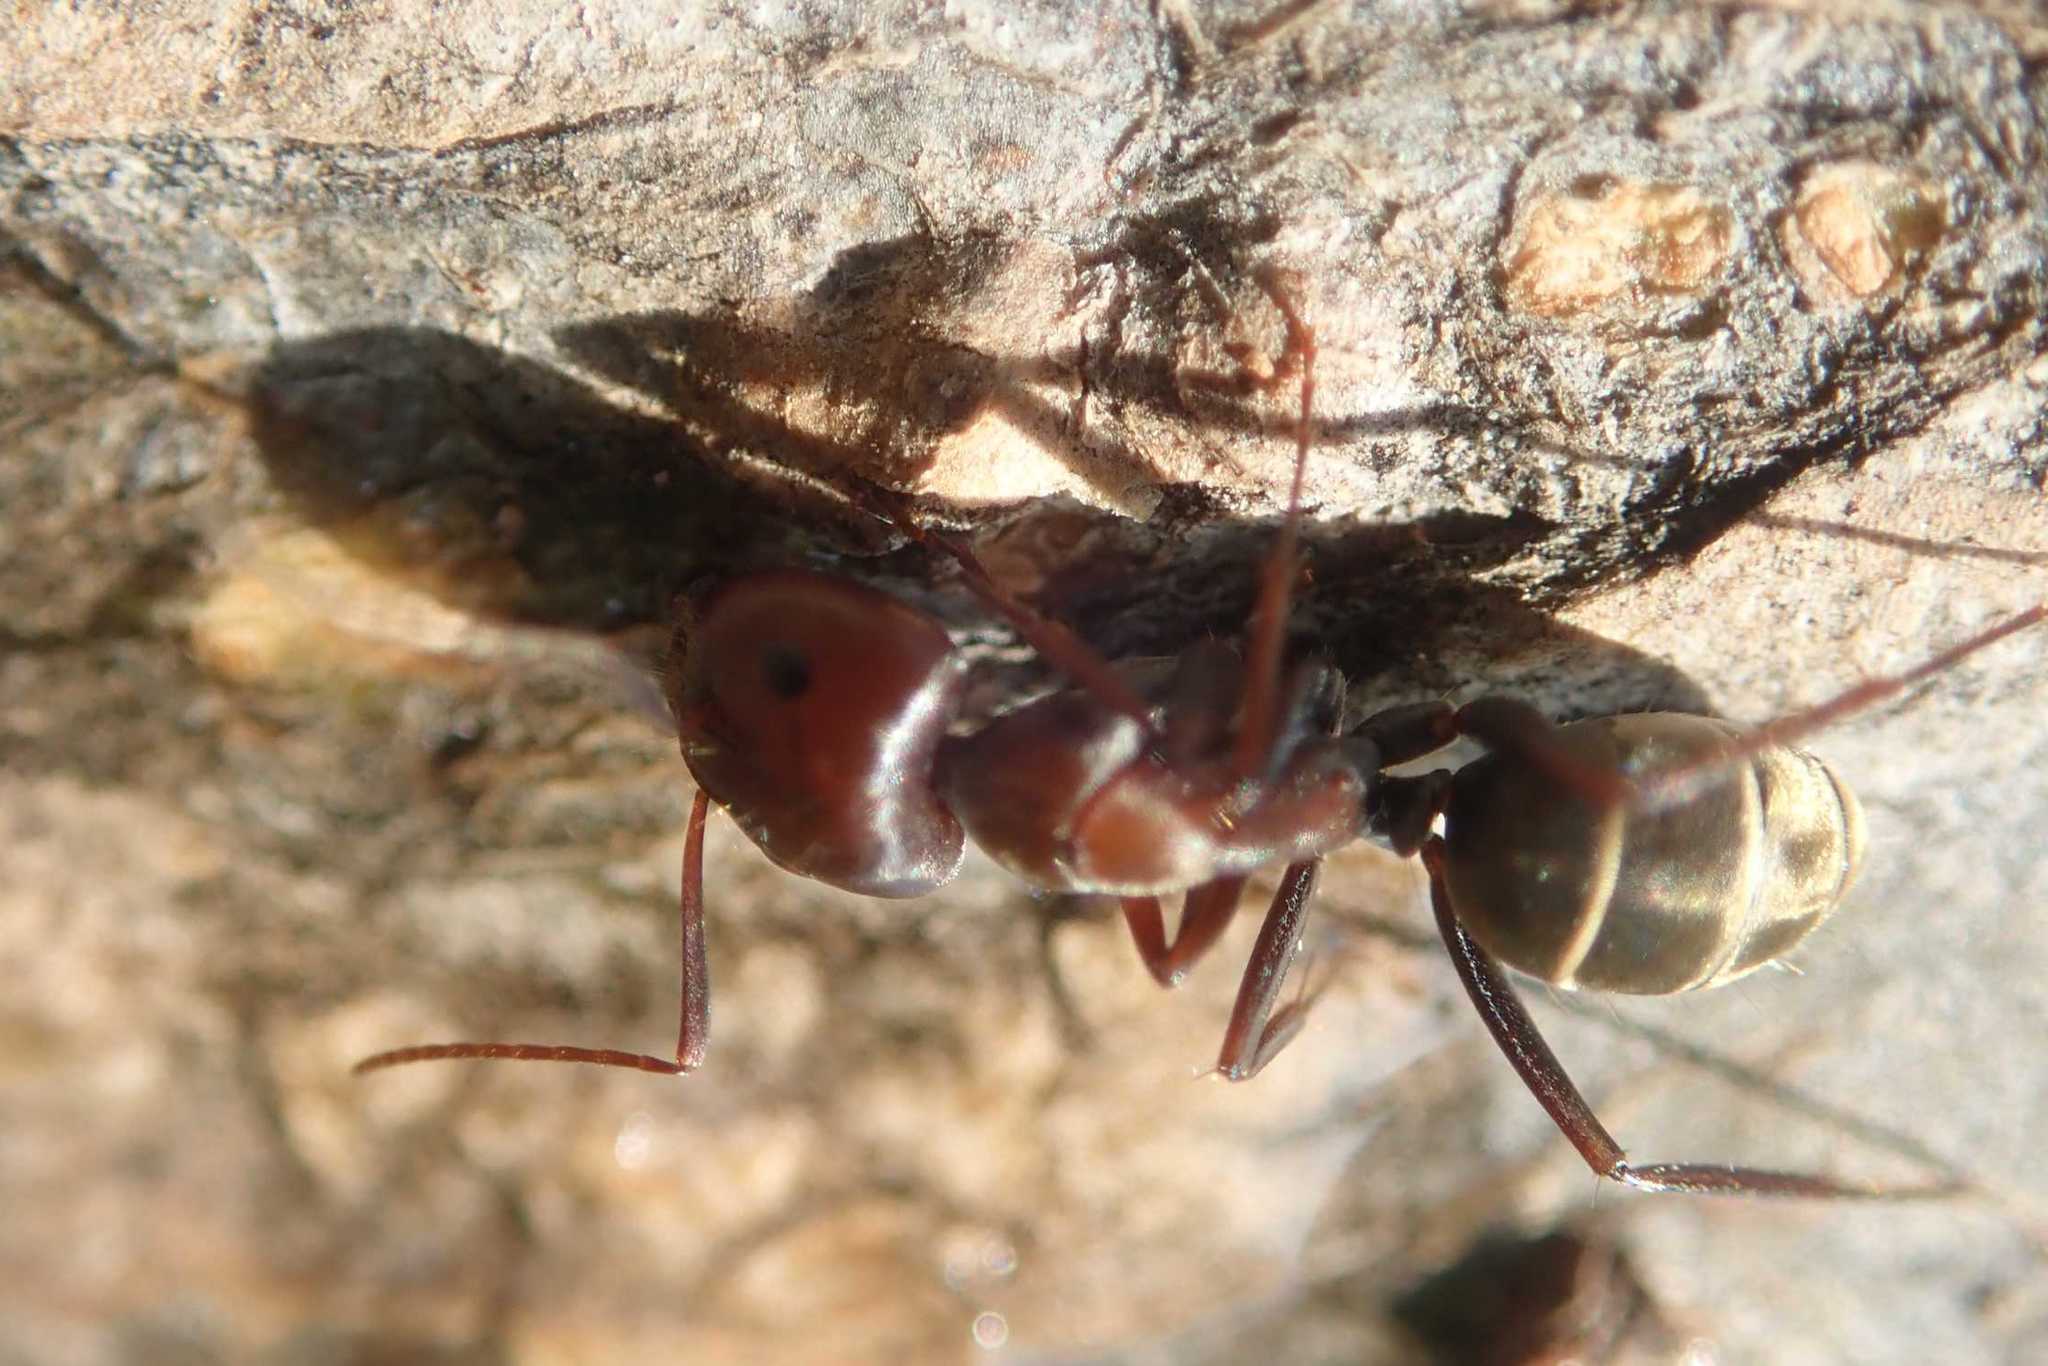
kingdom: Animalia
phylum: Arthropoda
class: Insecta
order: Hymenoptera
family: Formicidae
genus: Camponotus
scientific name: Camponotus vestitus
